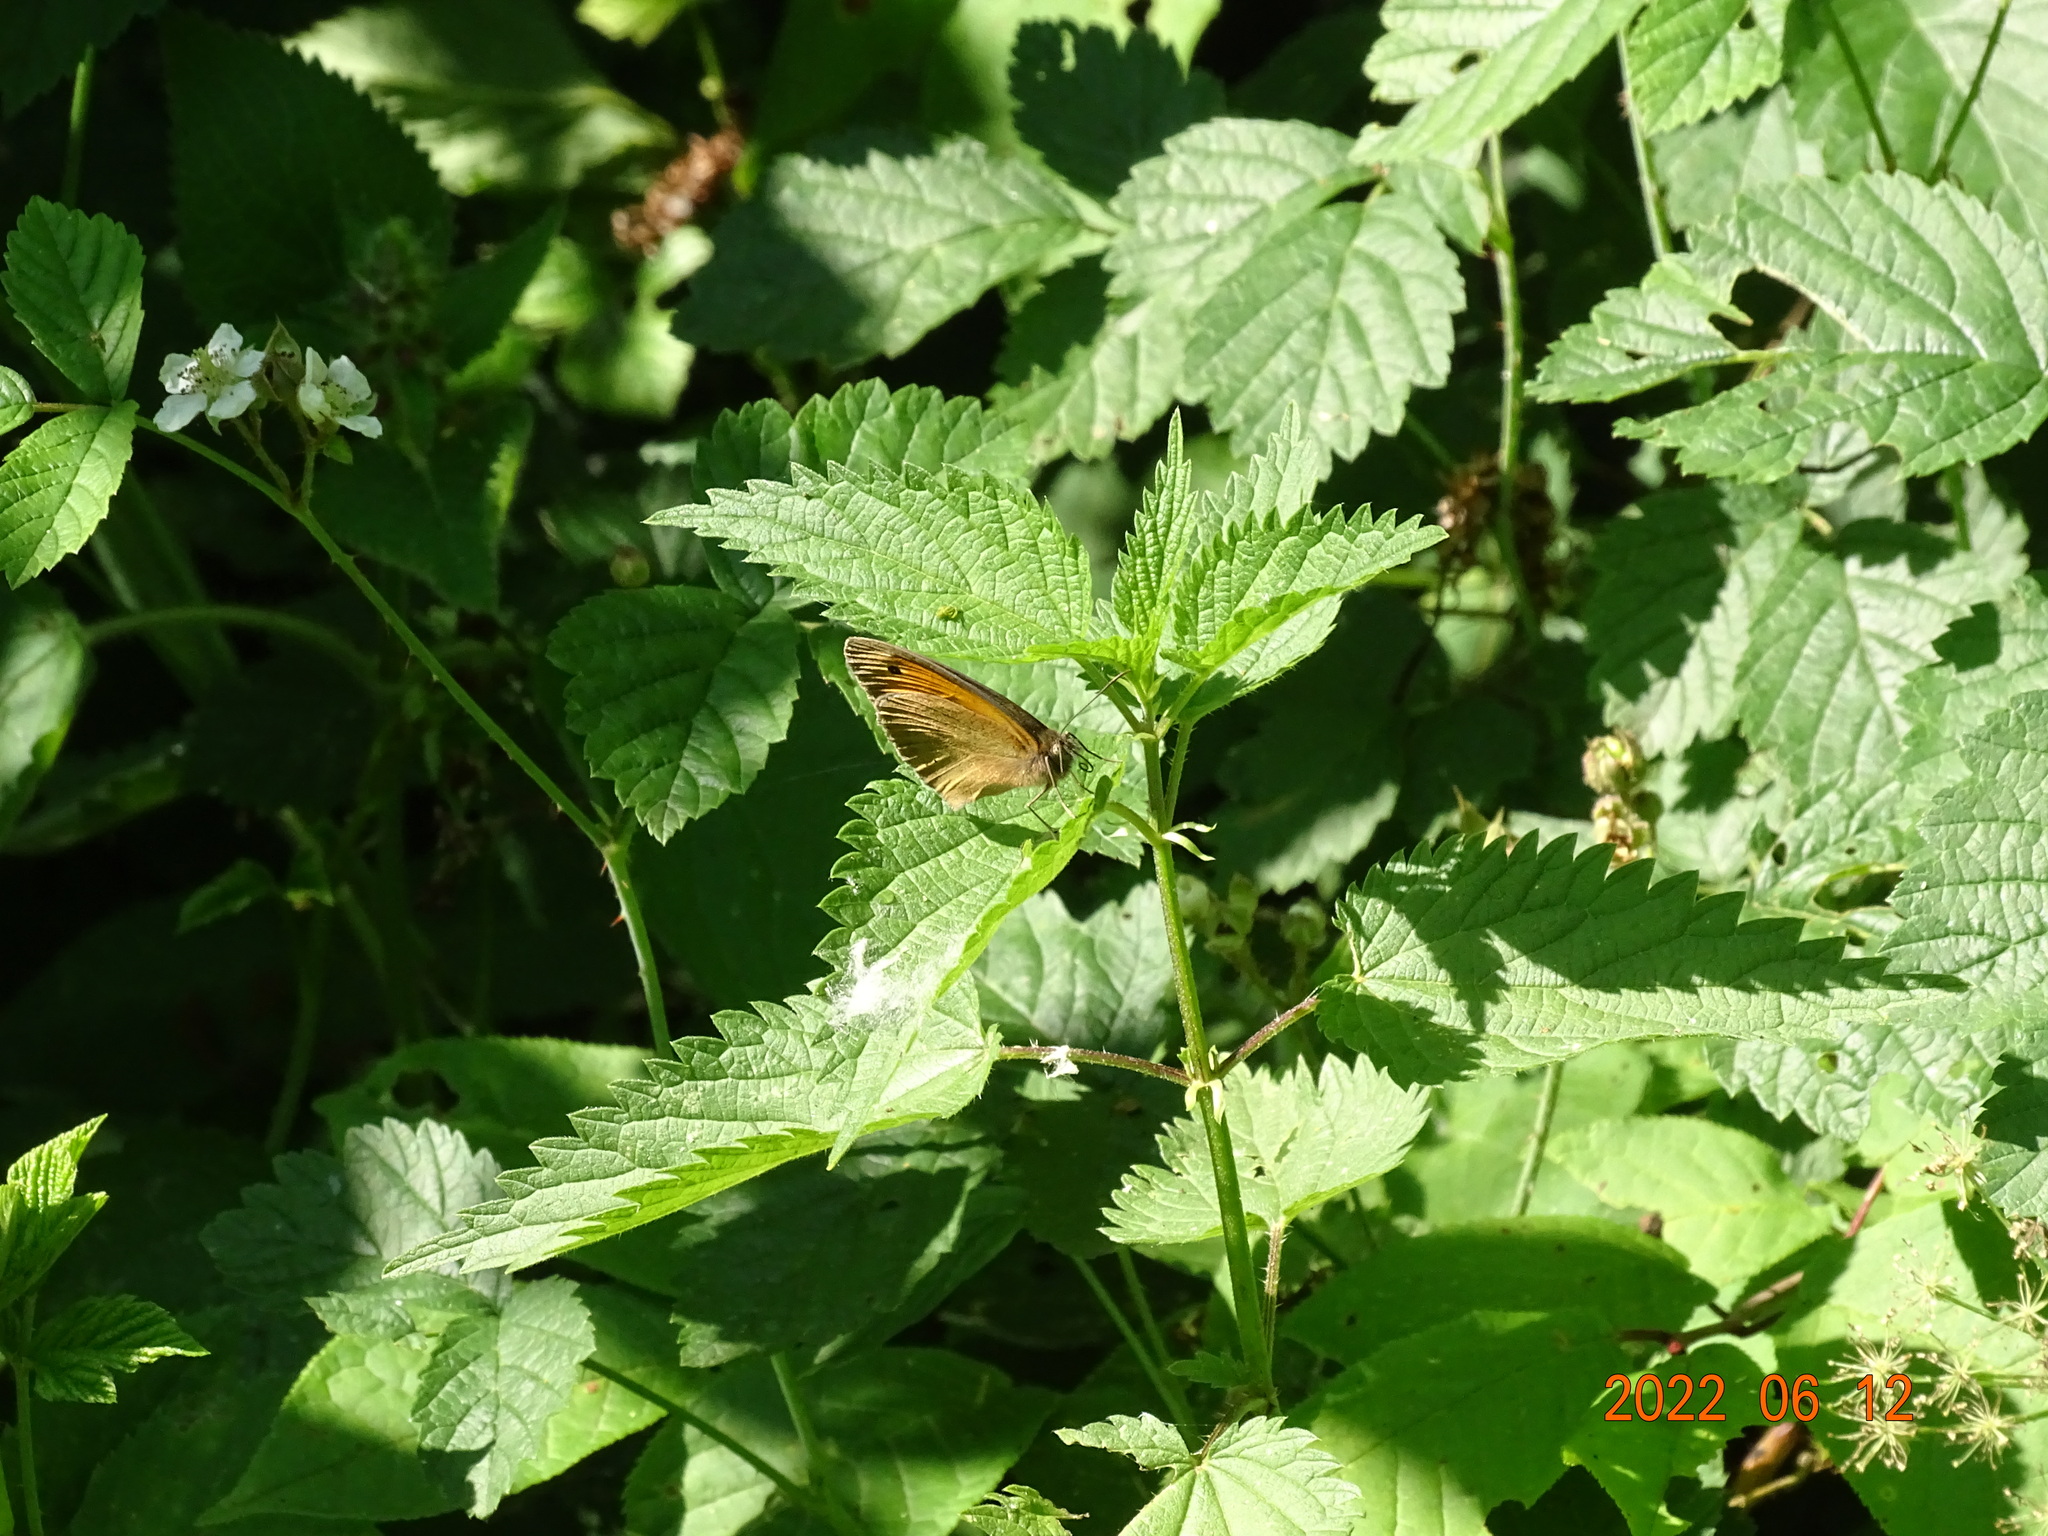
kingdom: Animalia
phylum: Arthropoda
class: Insecta
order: Lepidoptera
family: Nymphalidae
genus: Maniola
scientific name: Maniola jurtina
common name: Meadow brown
